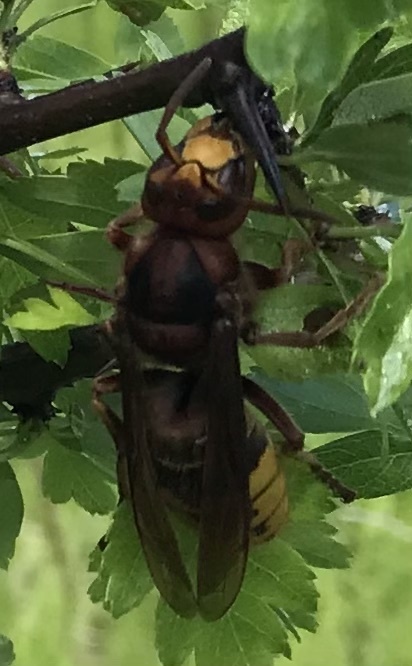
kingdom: Animalia
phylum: Arthropoda
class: Insecta
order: Hymenoptera
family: Vespidae
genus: Vespa
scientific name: Vespa crabro
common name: Hornet
